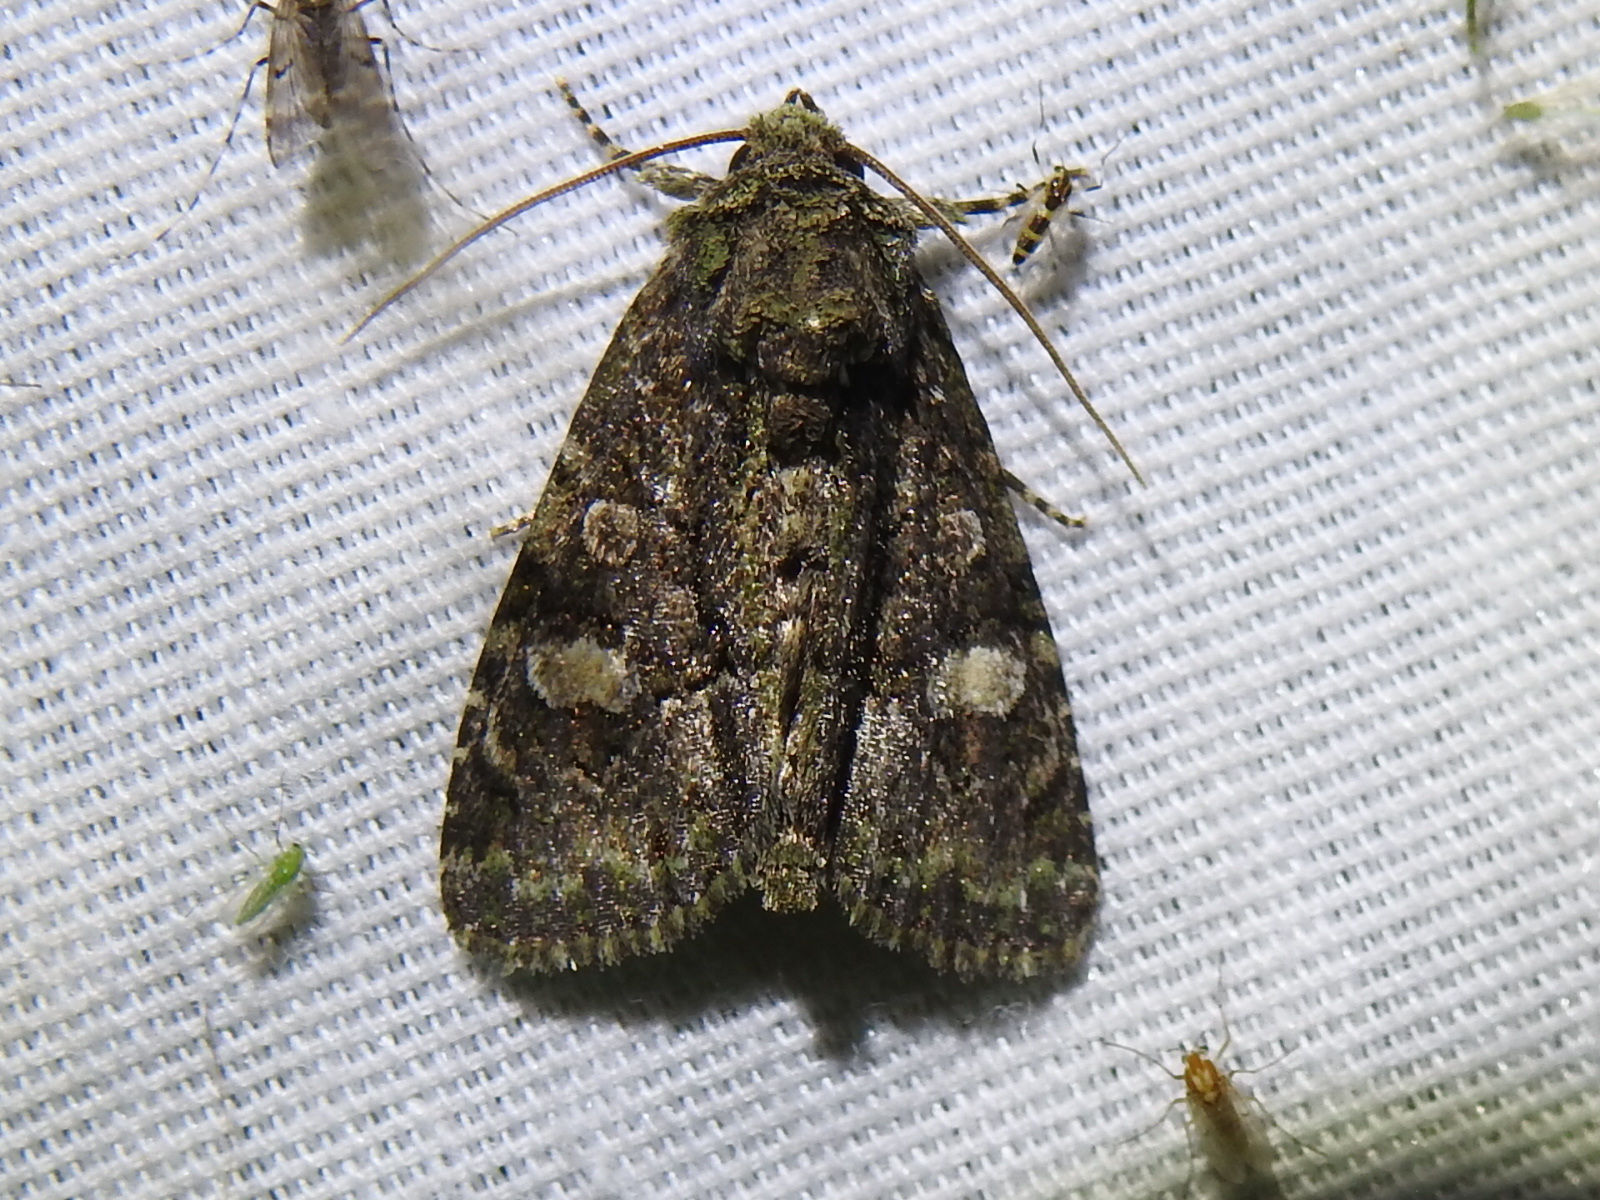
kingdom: Animalia
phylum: Arthropoda
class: Insecta
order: Lepidoptera
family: Noctuidae
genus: Phosphila
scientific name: Phosphila miselioides
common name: Spotted phosphila moth
